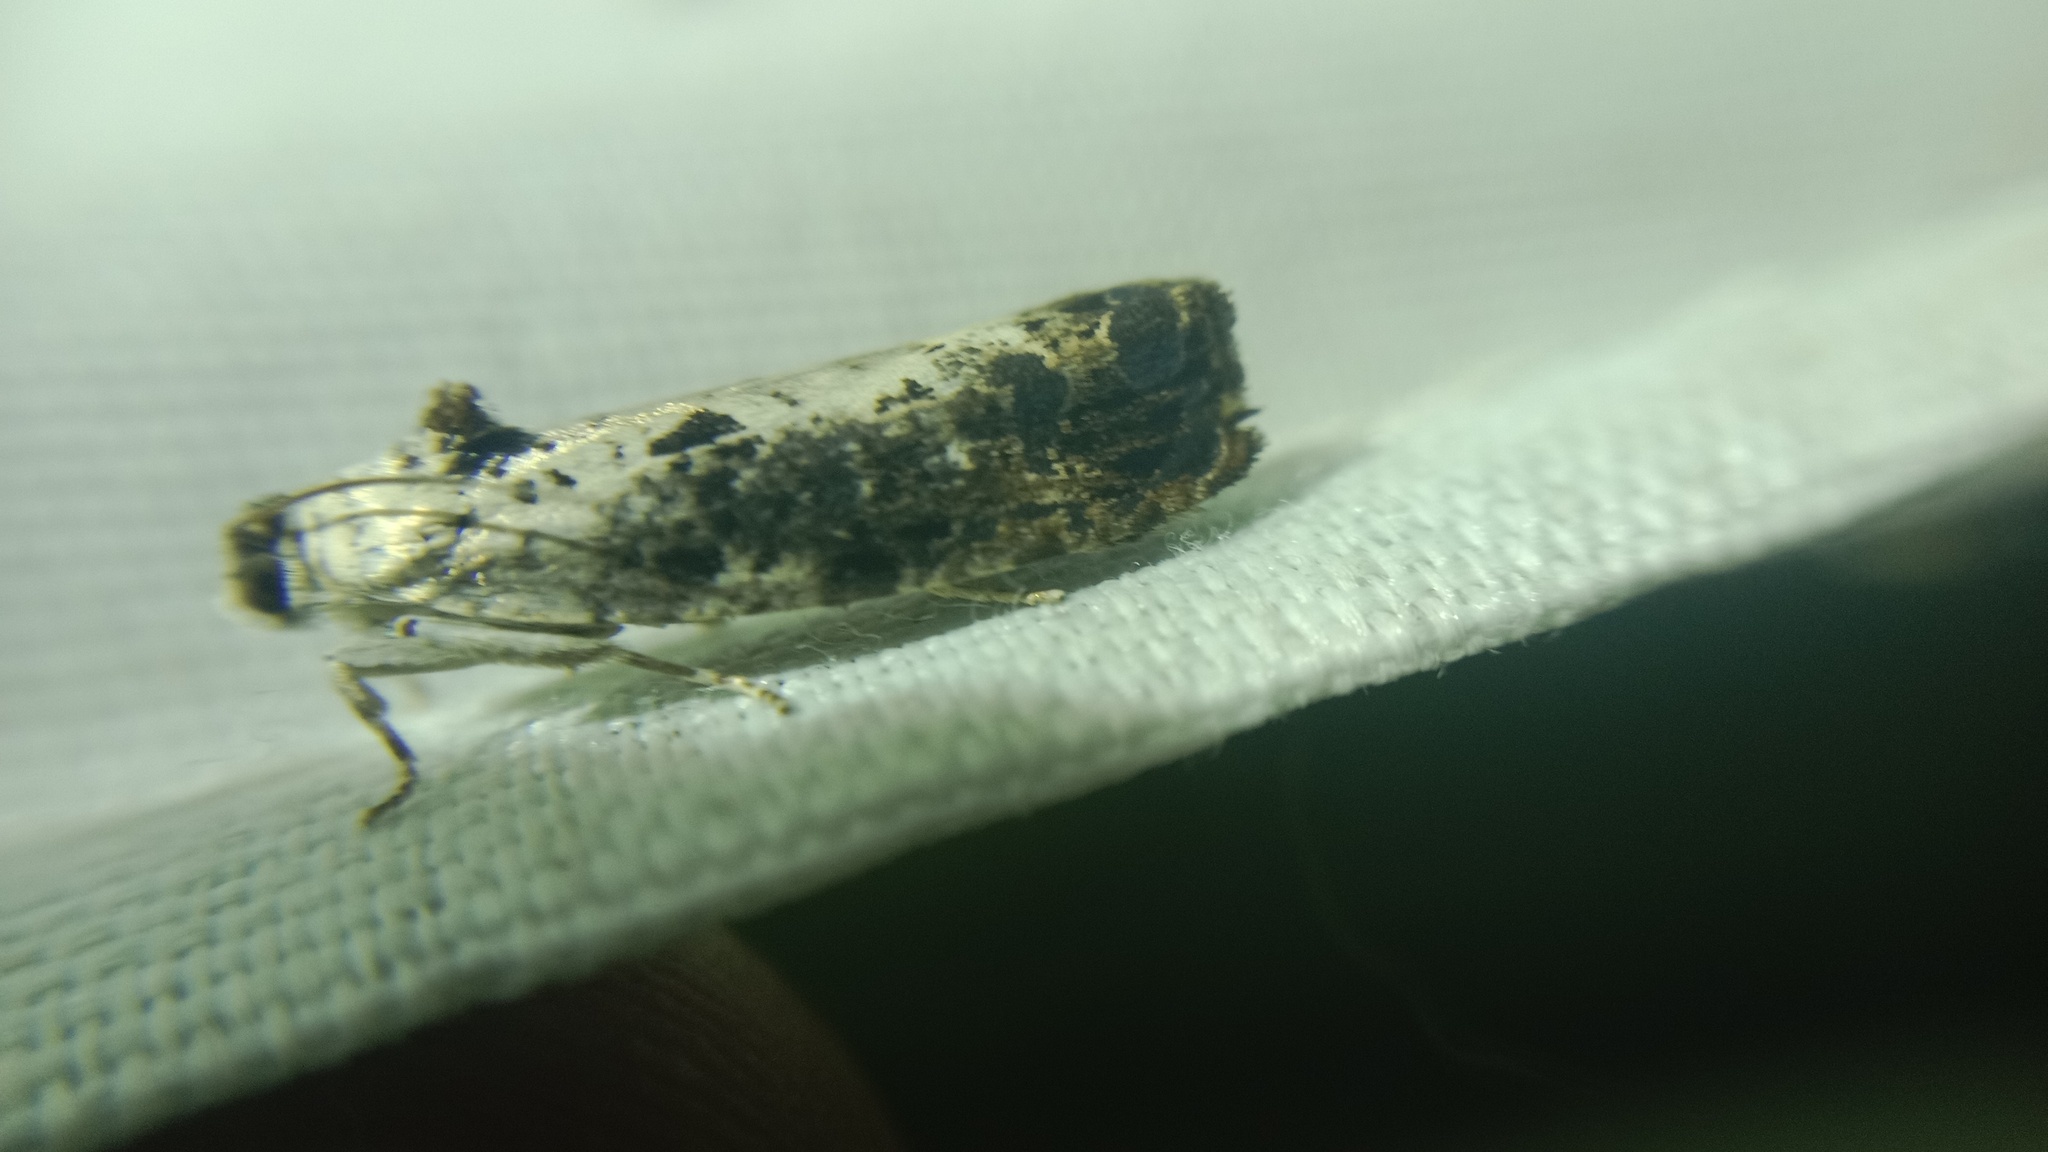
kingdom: Animalia
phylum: Arthropoda
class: Insecta
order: Lepidoptera
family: Tortricidae
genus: Hedya
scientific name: Hedya salicella
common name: Large tortricid moth
